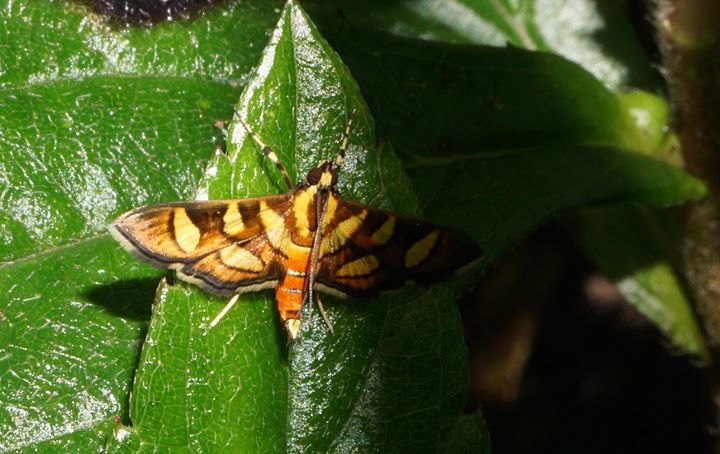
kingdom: Animalia
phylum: Arthropoda
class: Insecta
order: Lepidoptera
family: Crambidae
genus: Syngamia
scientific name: Syngamia florella
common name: Orange-spotted flower moth
